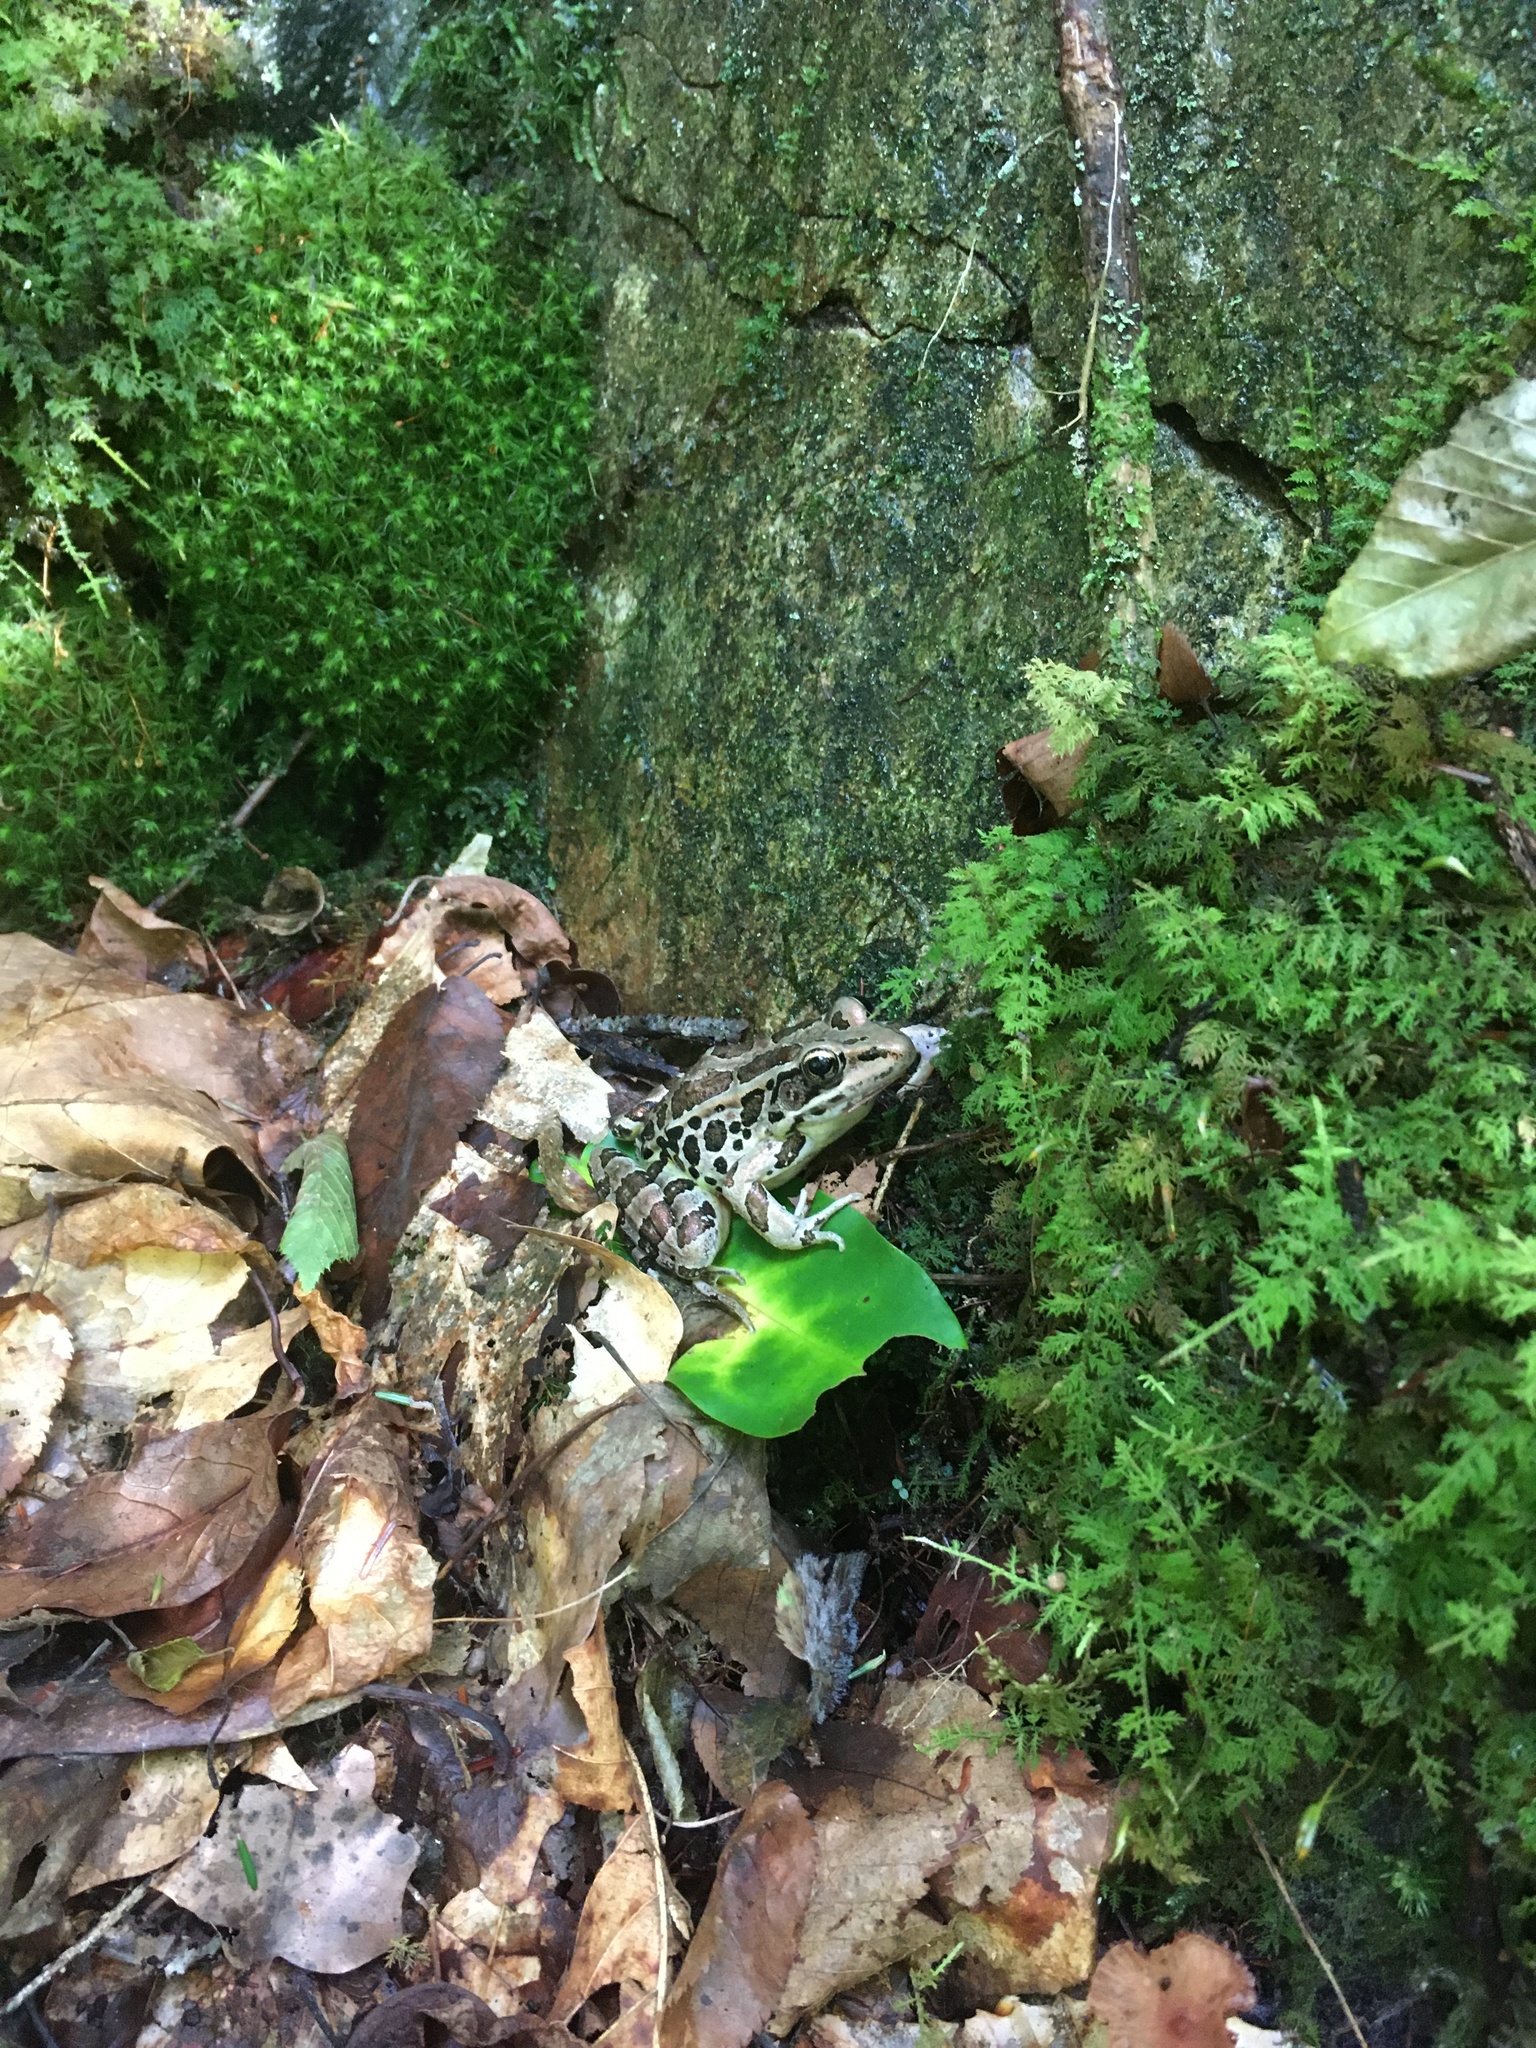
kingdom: Animalia
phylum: Chordata
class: Amphibia
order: Anura
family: Ranidae
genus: Lithobates
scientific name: Lithobates palustris
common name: Pickerel frog
